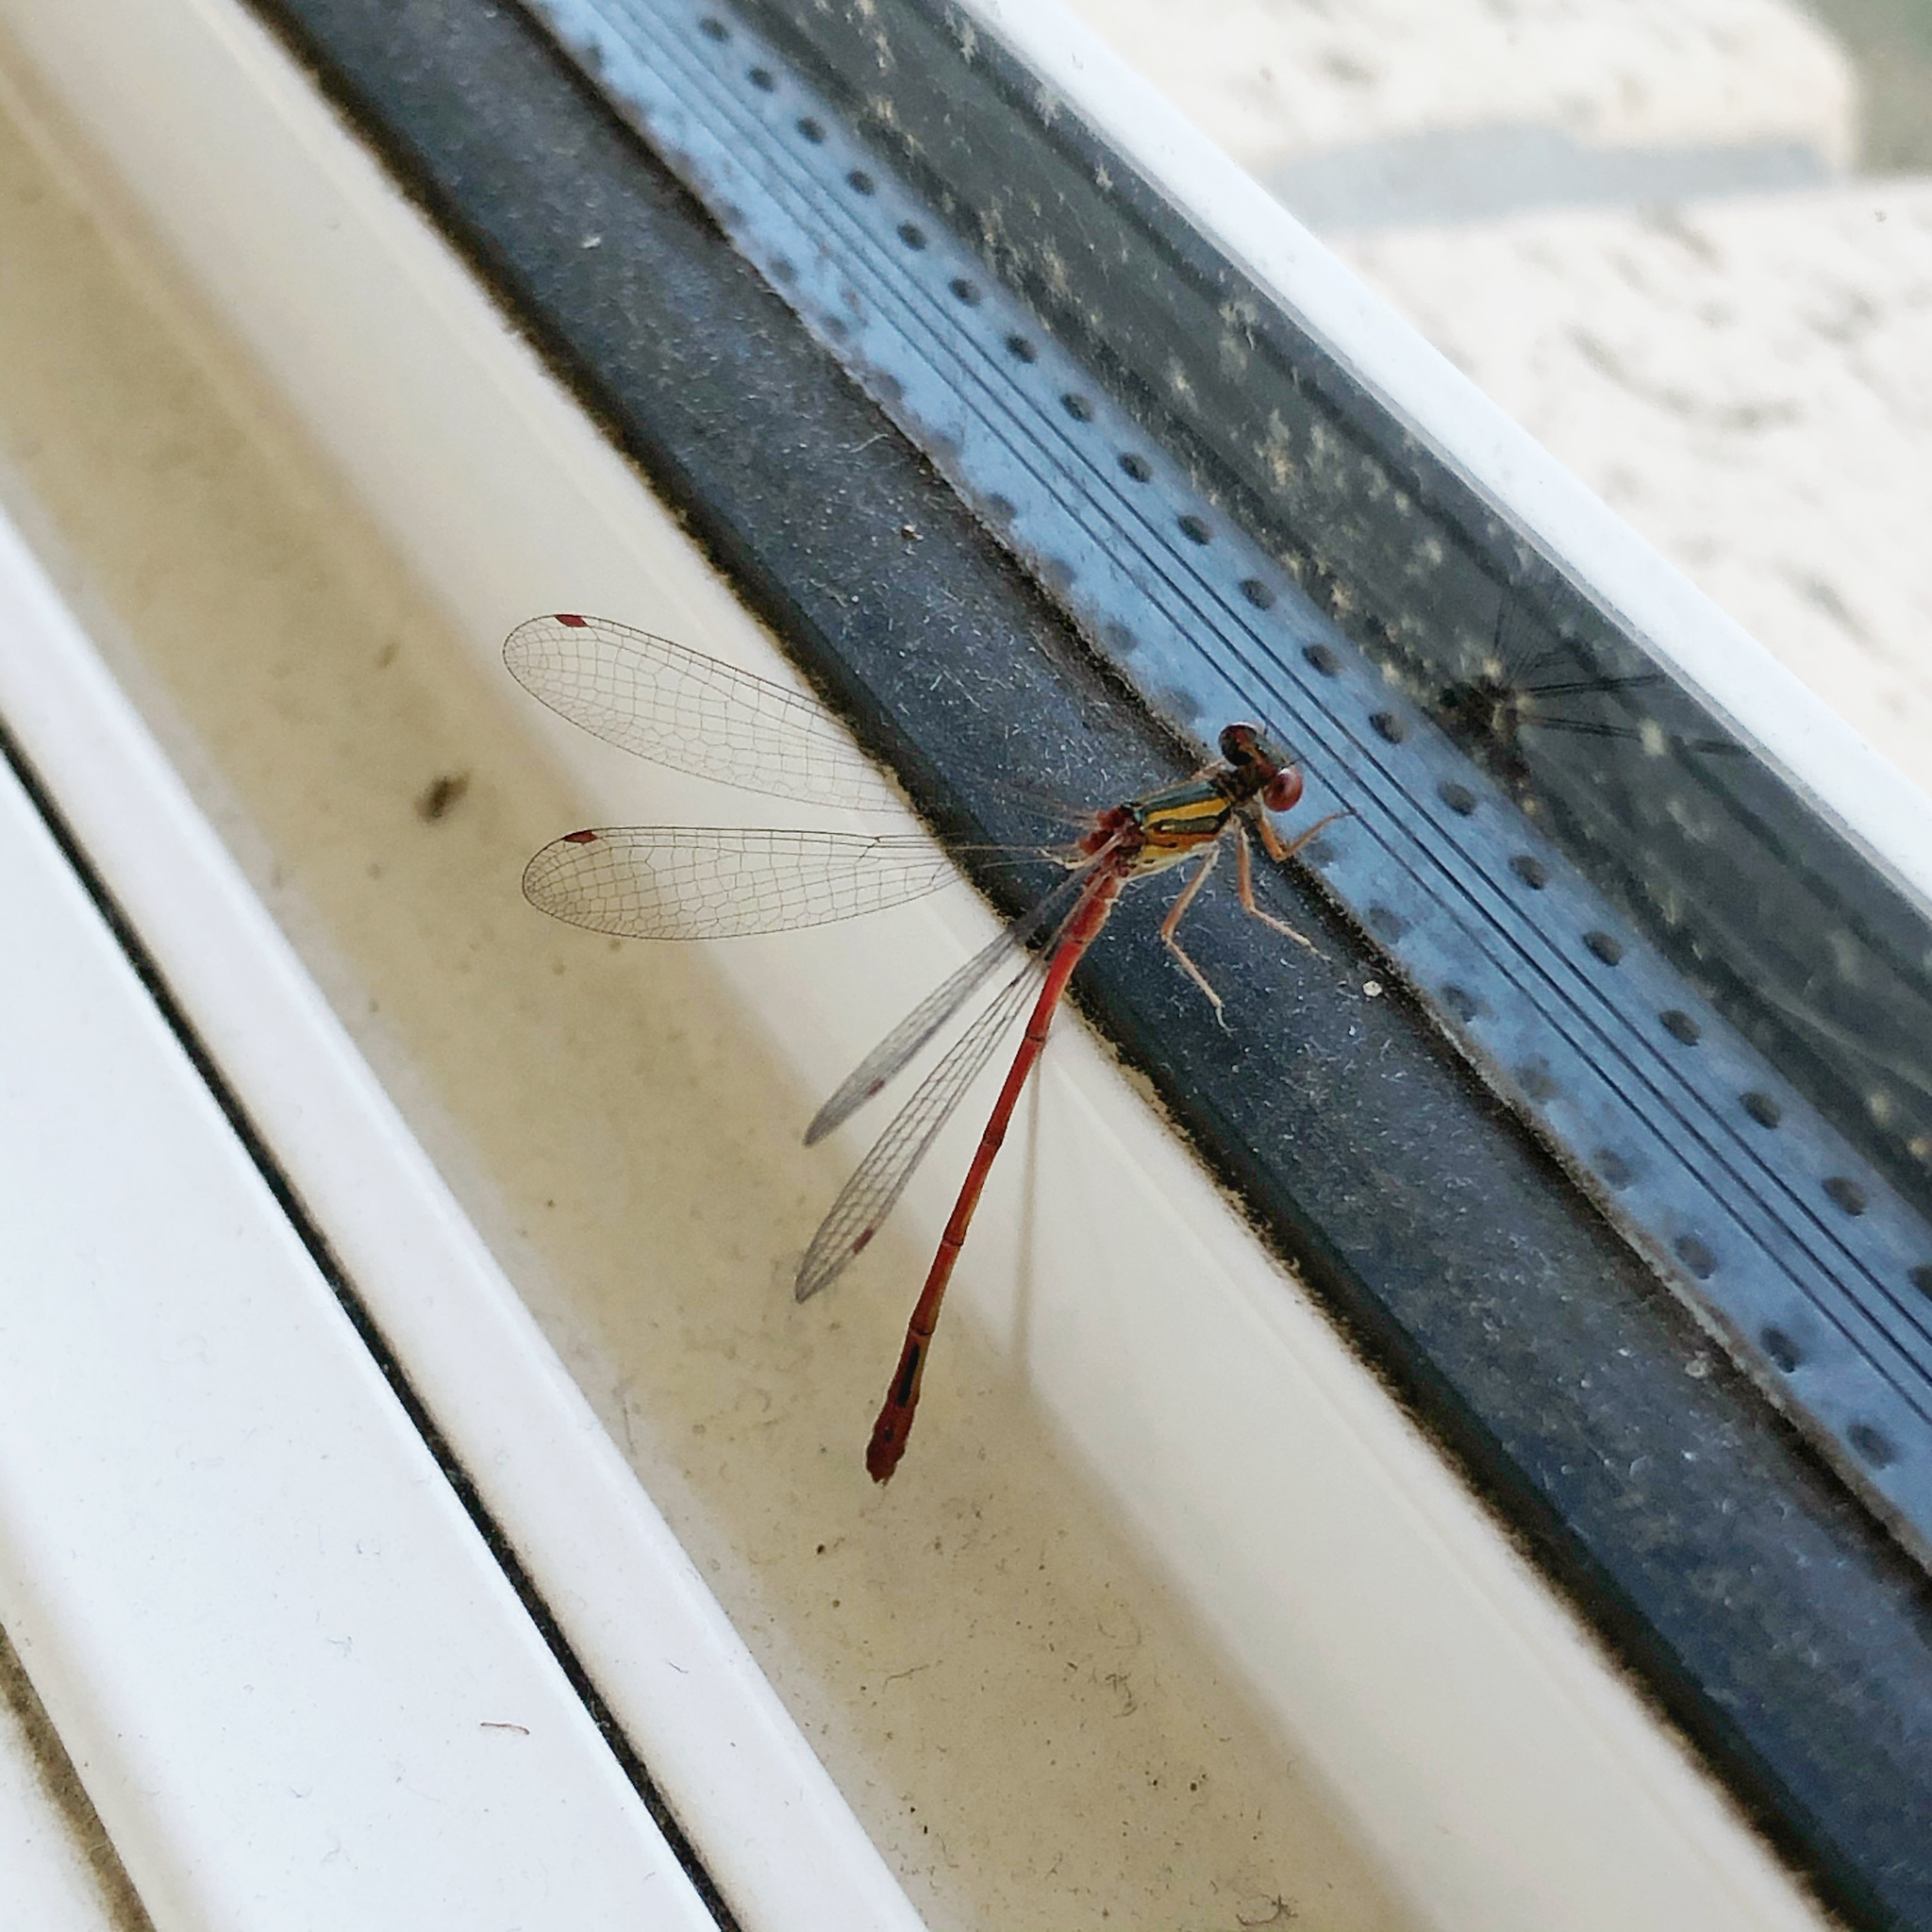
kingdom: Animalia
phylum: Arthropoda
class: Insecta
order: Odonata
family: Coenagrionidae
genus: Xanthocnemis
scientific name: Xanthocnemis zealandica
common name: Common redcoat damselfly
